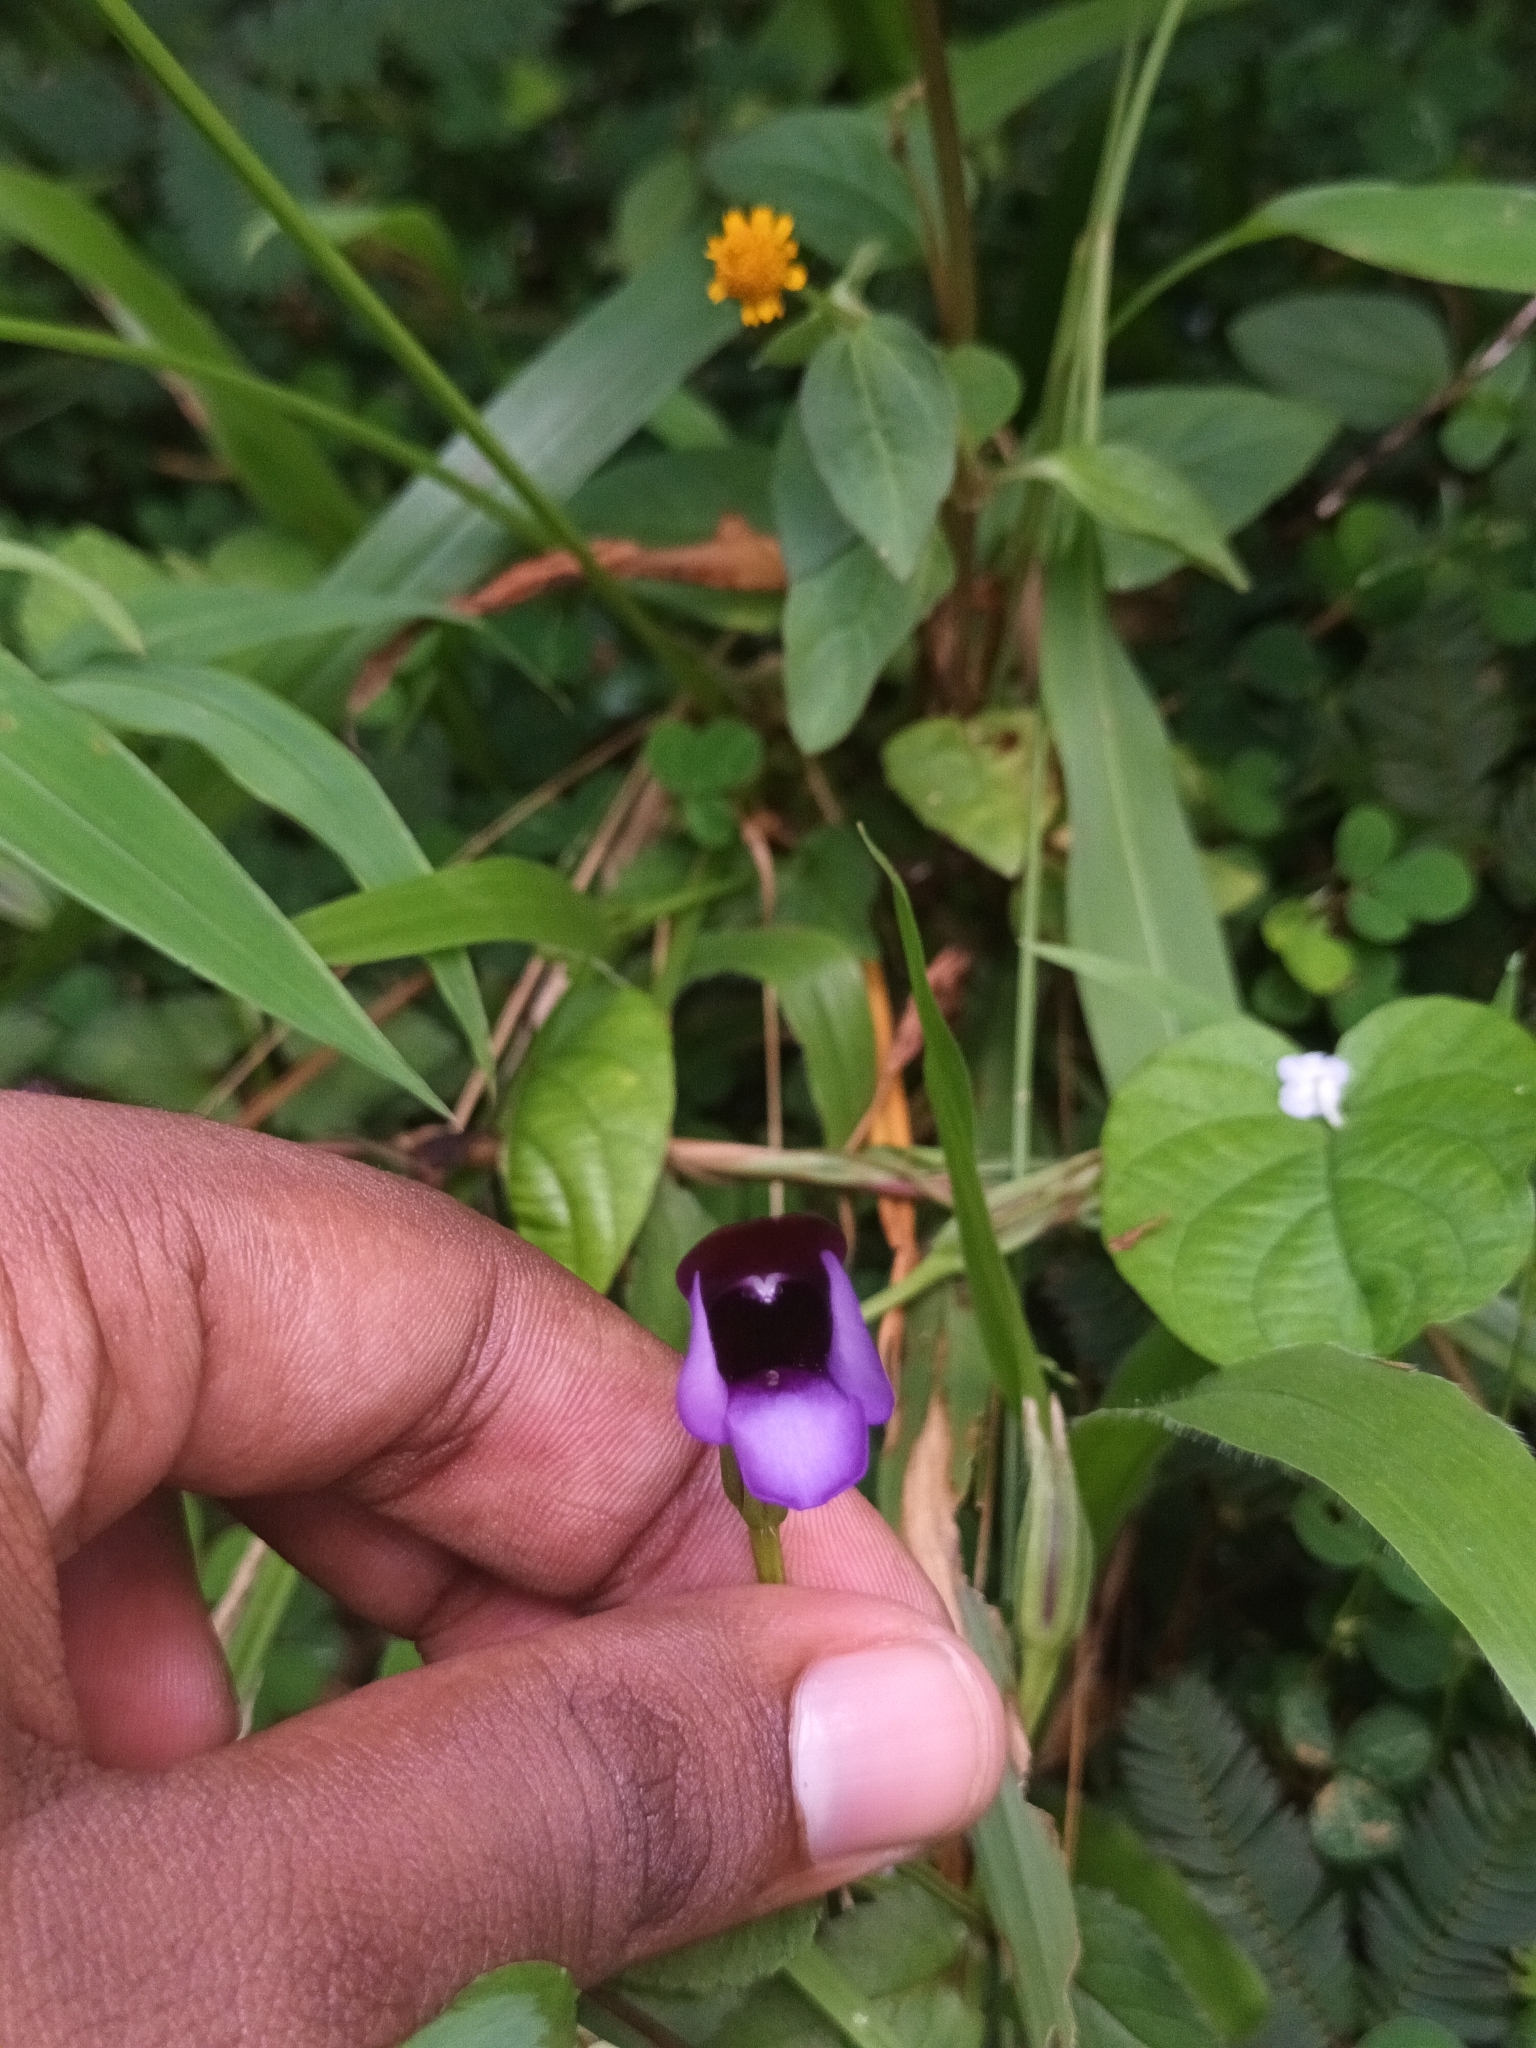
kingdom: Plantae
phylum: Tracheophyta
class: Magnoliopsida
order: Lamiales
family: Linderniaceae
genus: Torenia
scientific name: Torenia bicolor
